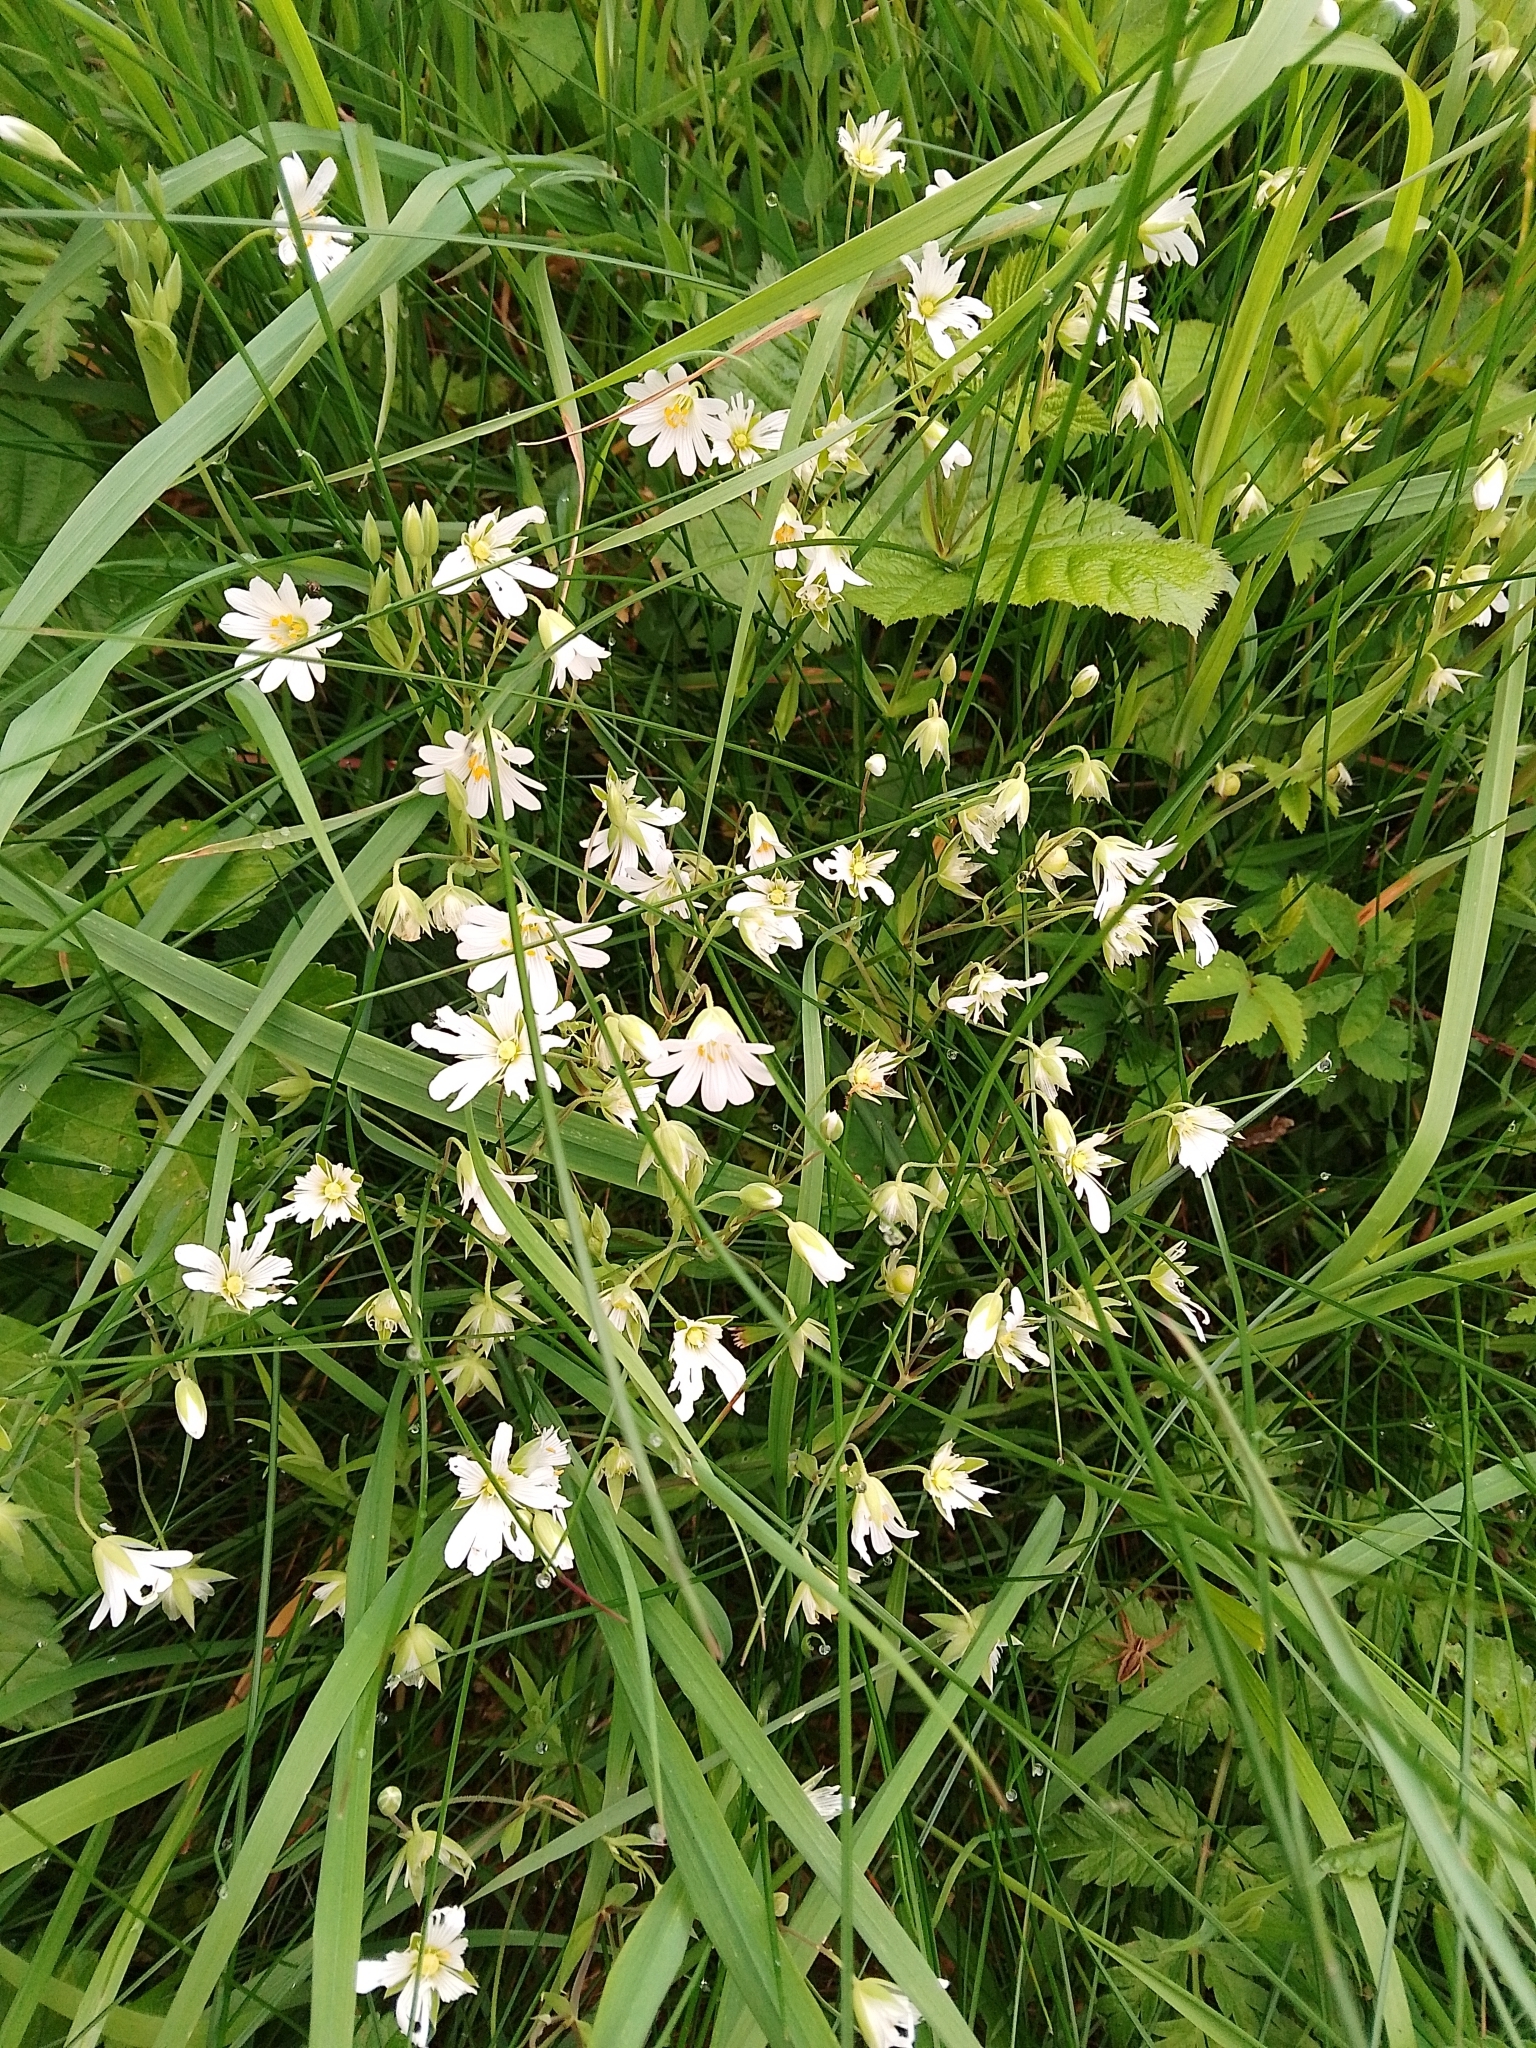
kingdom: Plantae
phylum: Tracheophyta
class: Magnoliopsida
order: Caryophyllales
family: Caryophyllaceae
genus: Rabelera
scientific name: Rabelera holostea
